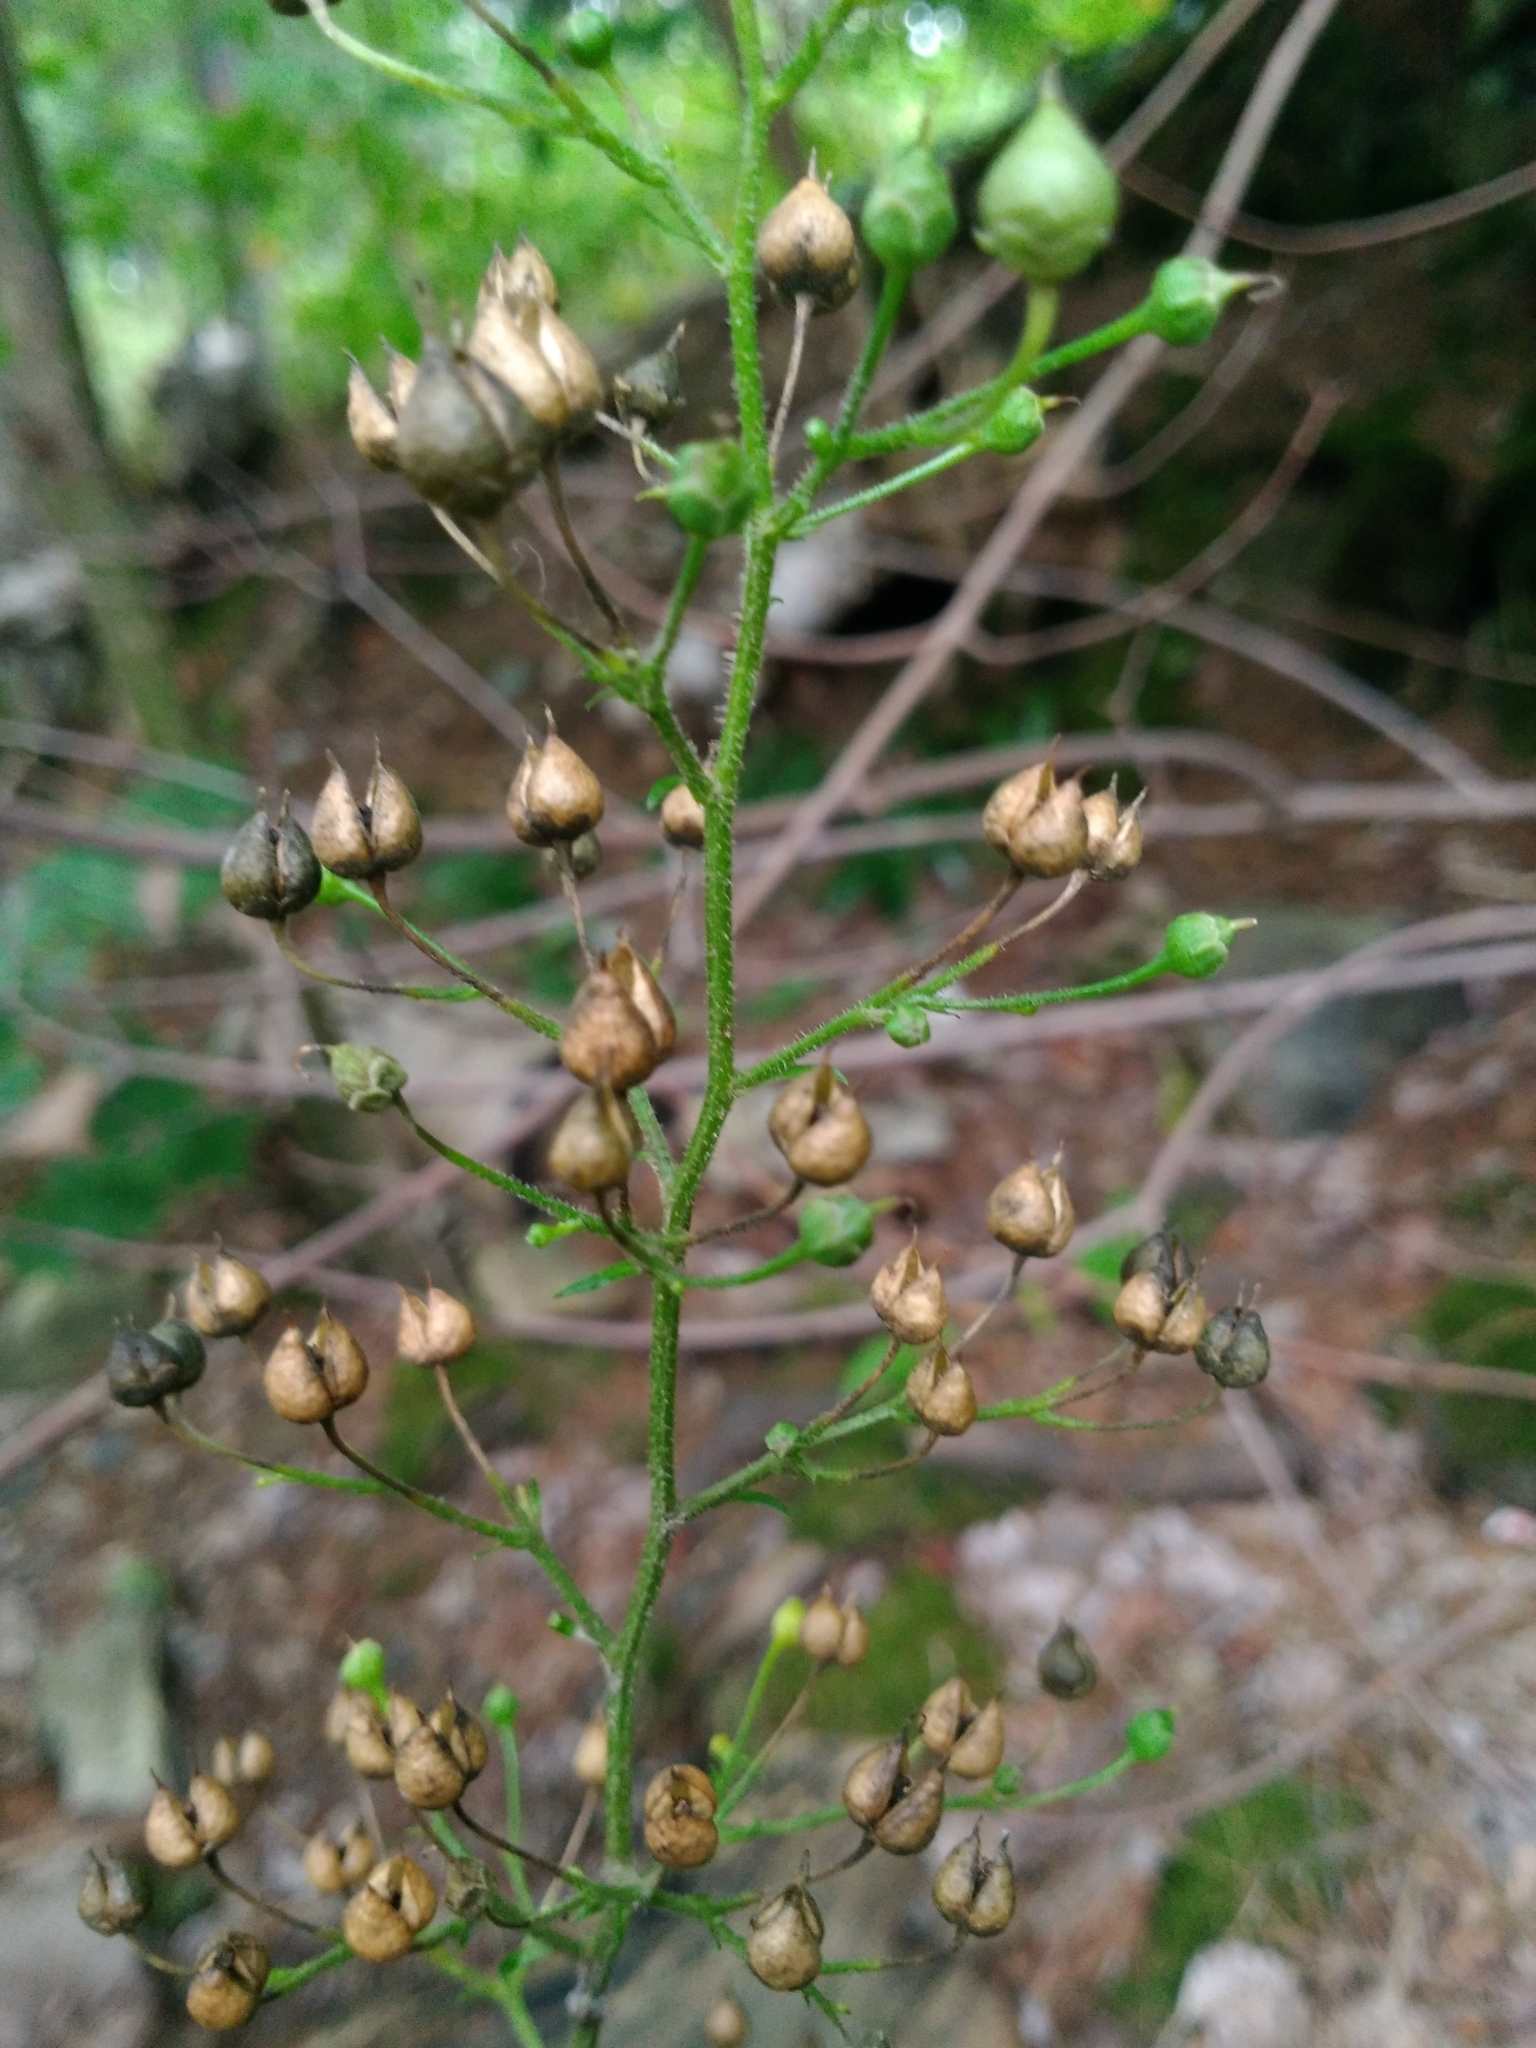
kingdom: Plantae
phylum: Tracheophyta
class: Magnoliopsida
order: Lamiales
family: Scrophulariaceae
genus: Scrophularia
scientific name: Scrophularia nodosa
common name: Common figwort
